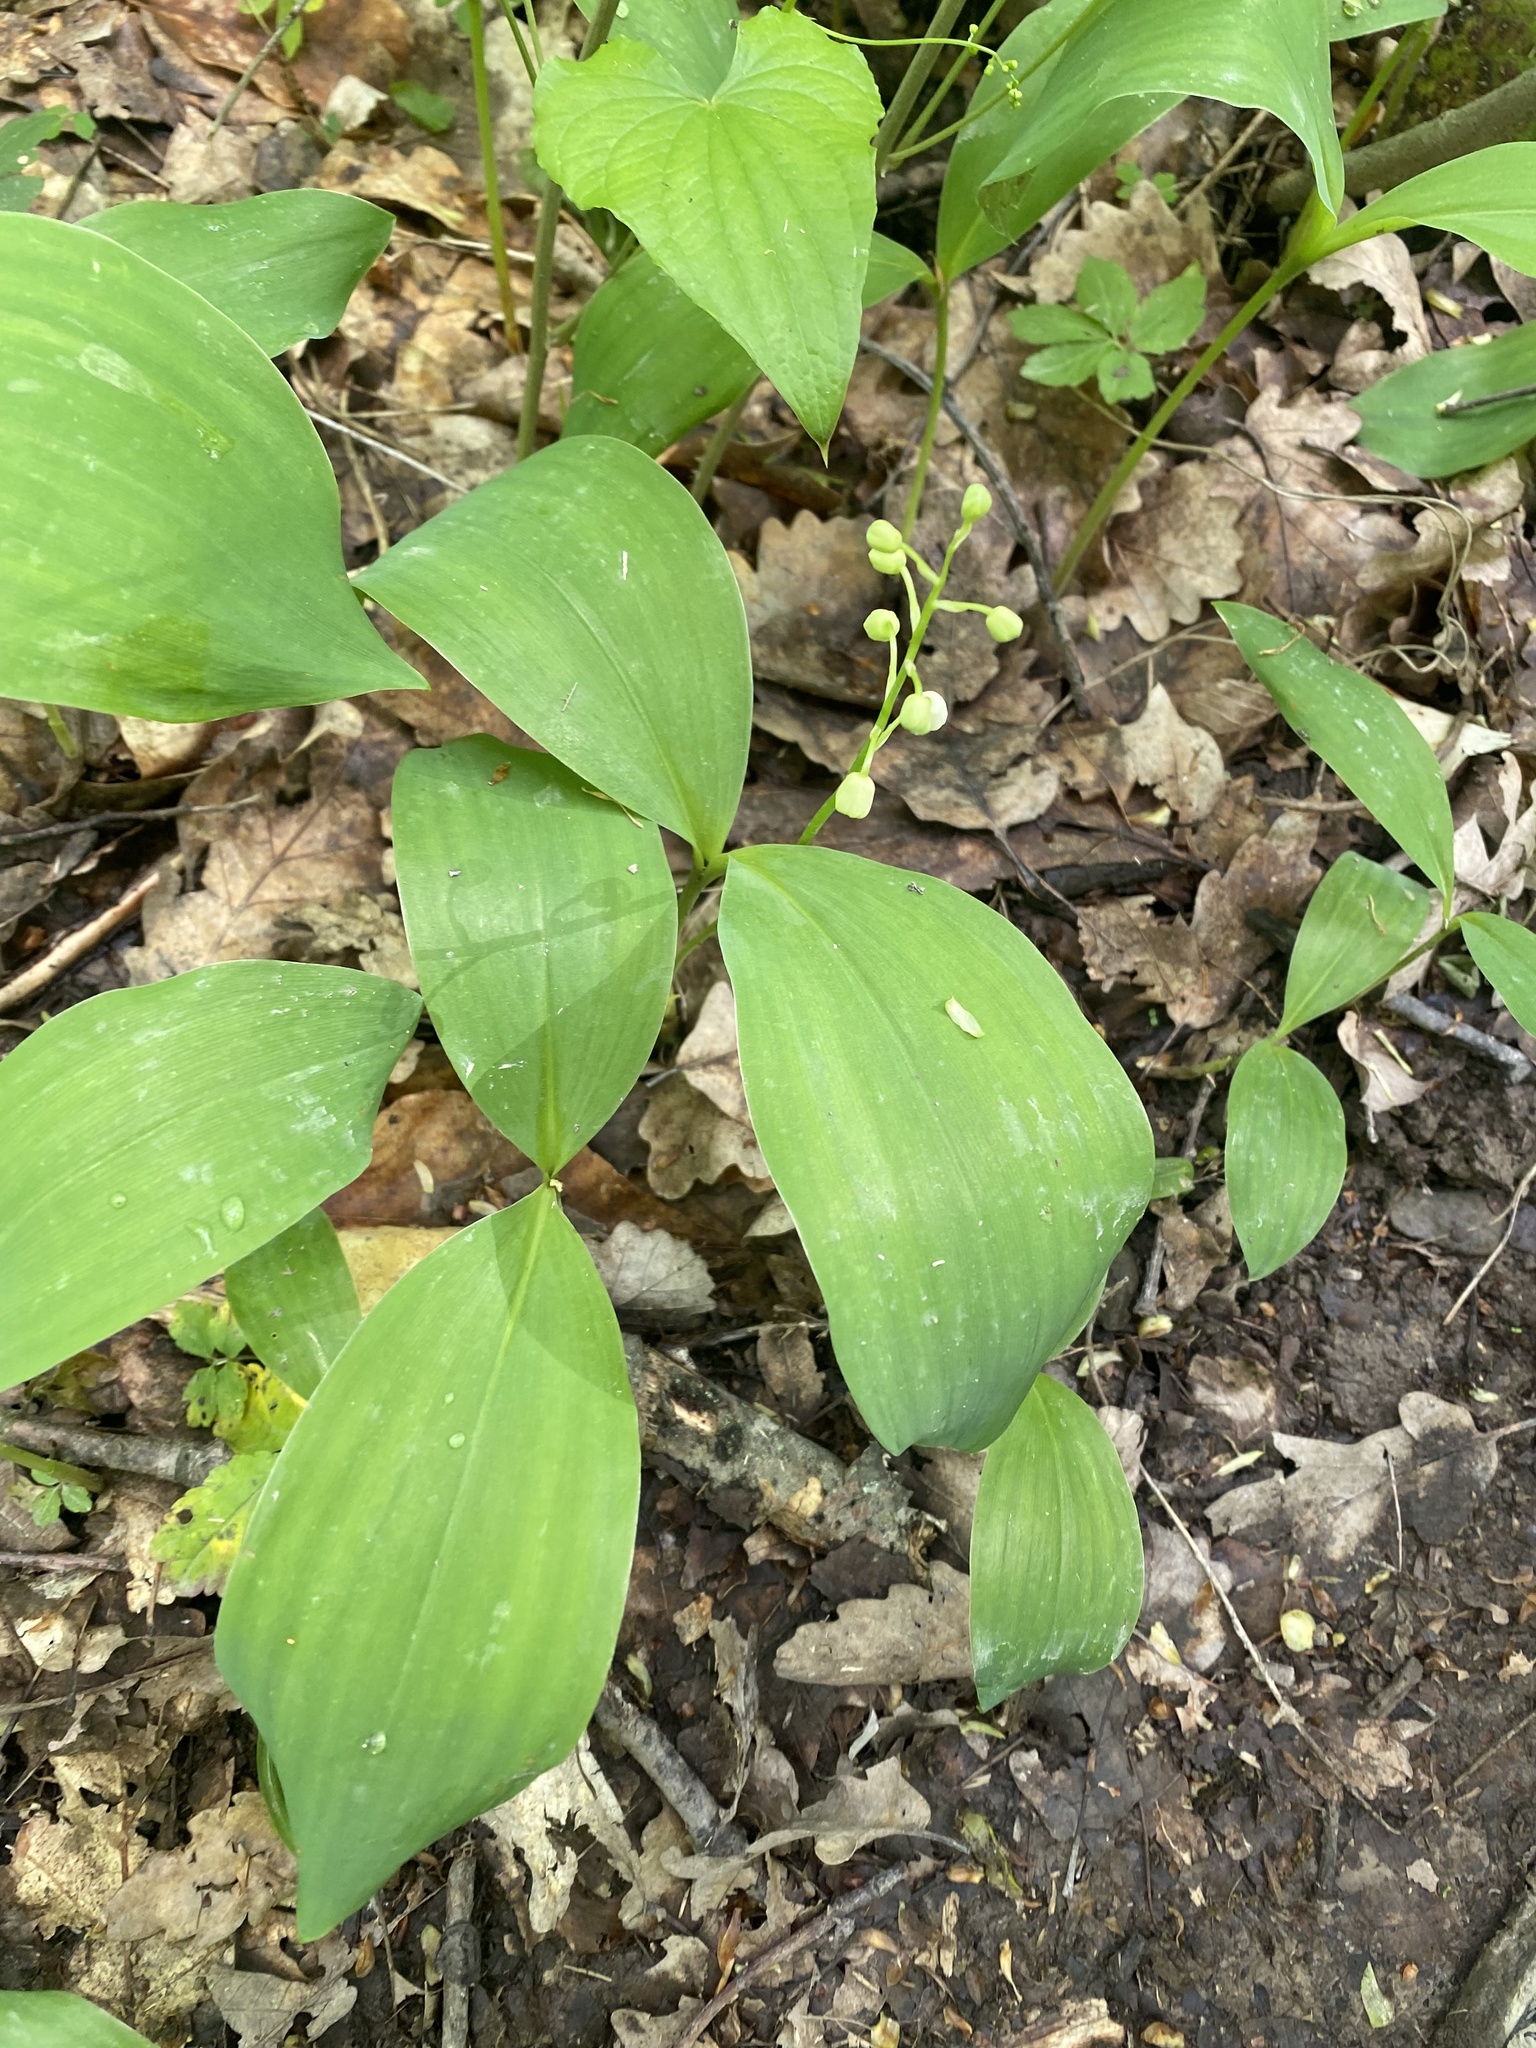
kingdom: Plantae
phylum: Tracheophyta
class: Liliopsida
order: Asparagales
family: Asparagaceae
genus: Convallaria
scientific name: Convallaria majalis
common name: Lily-of-the-valley
